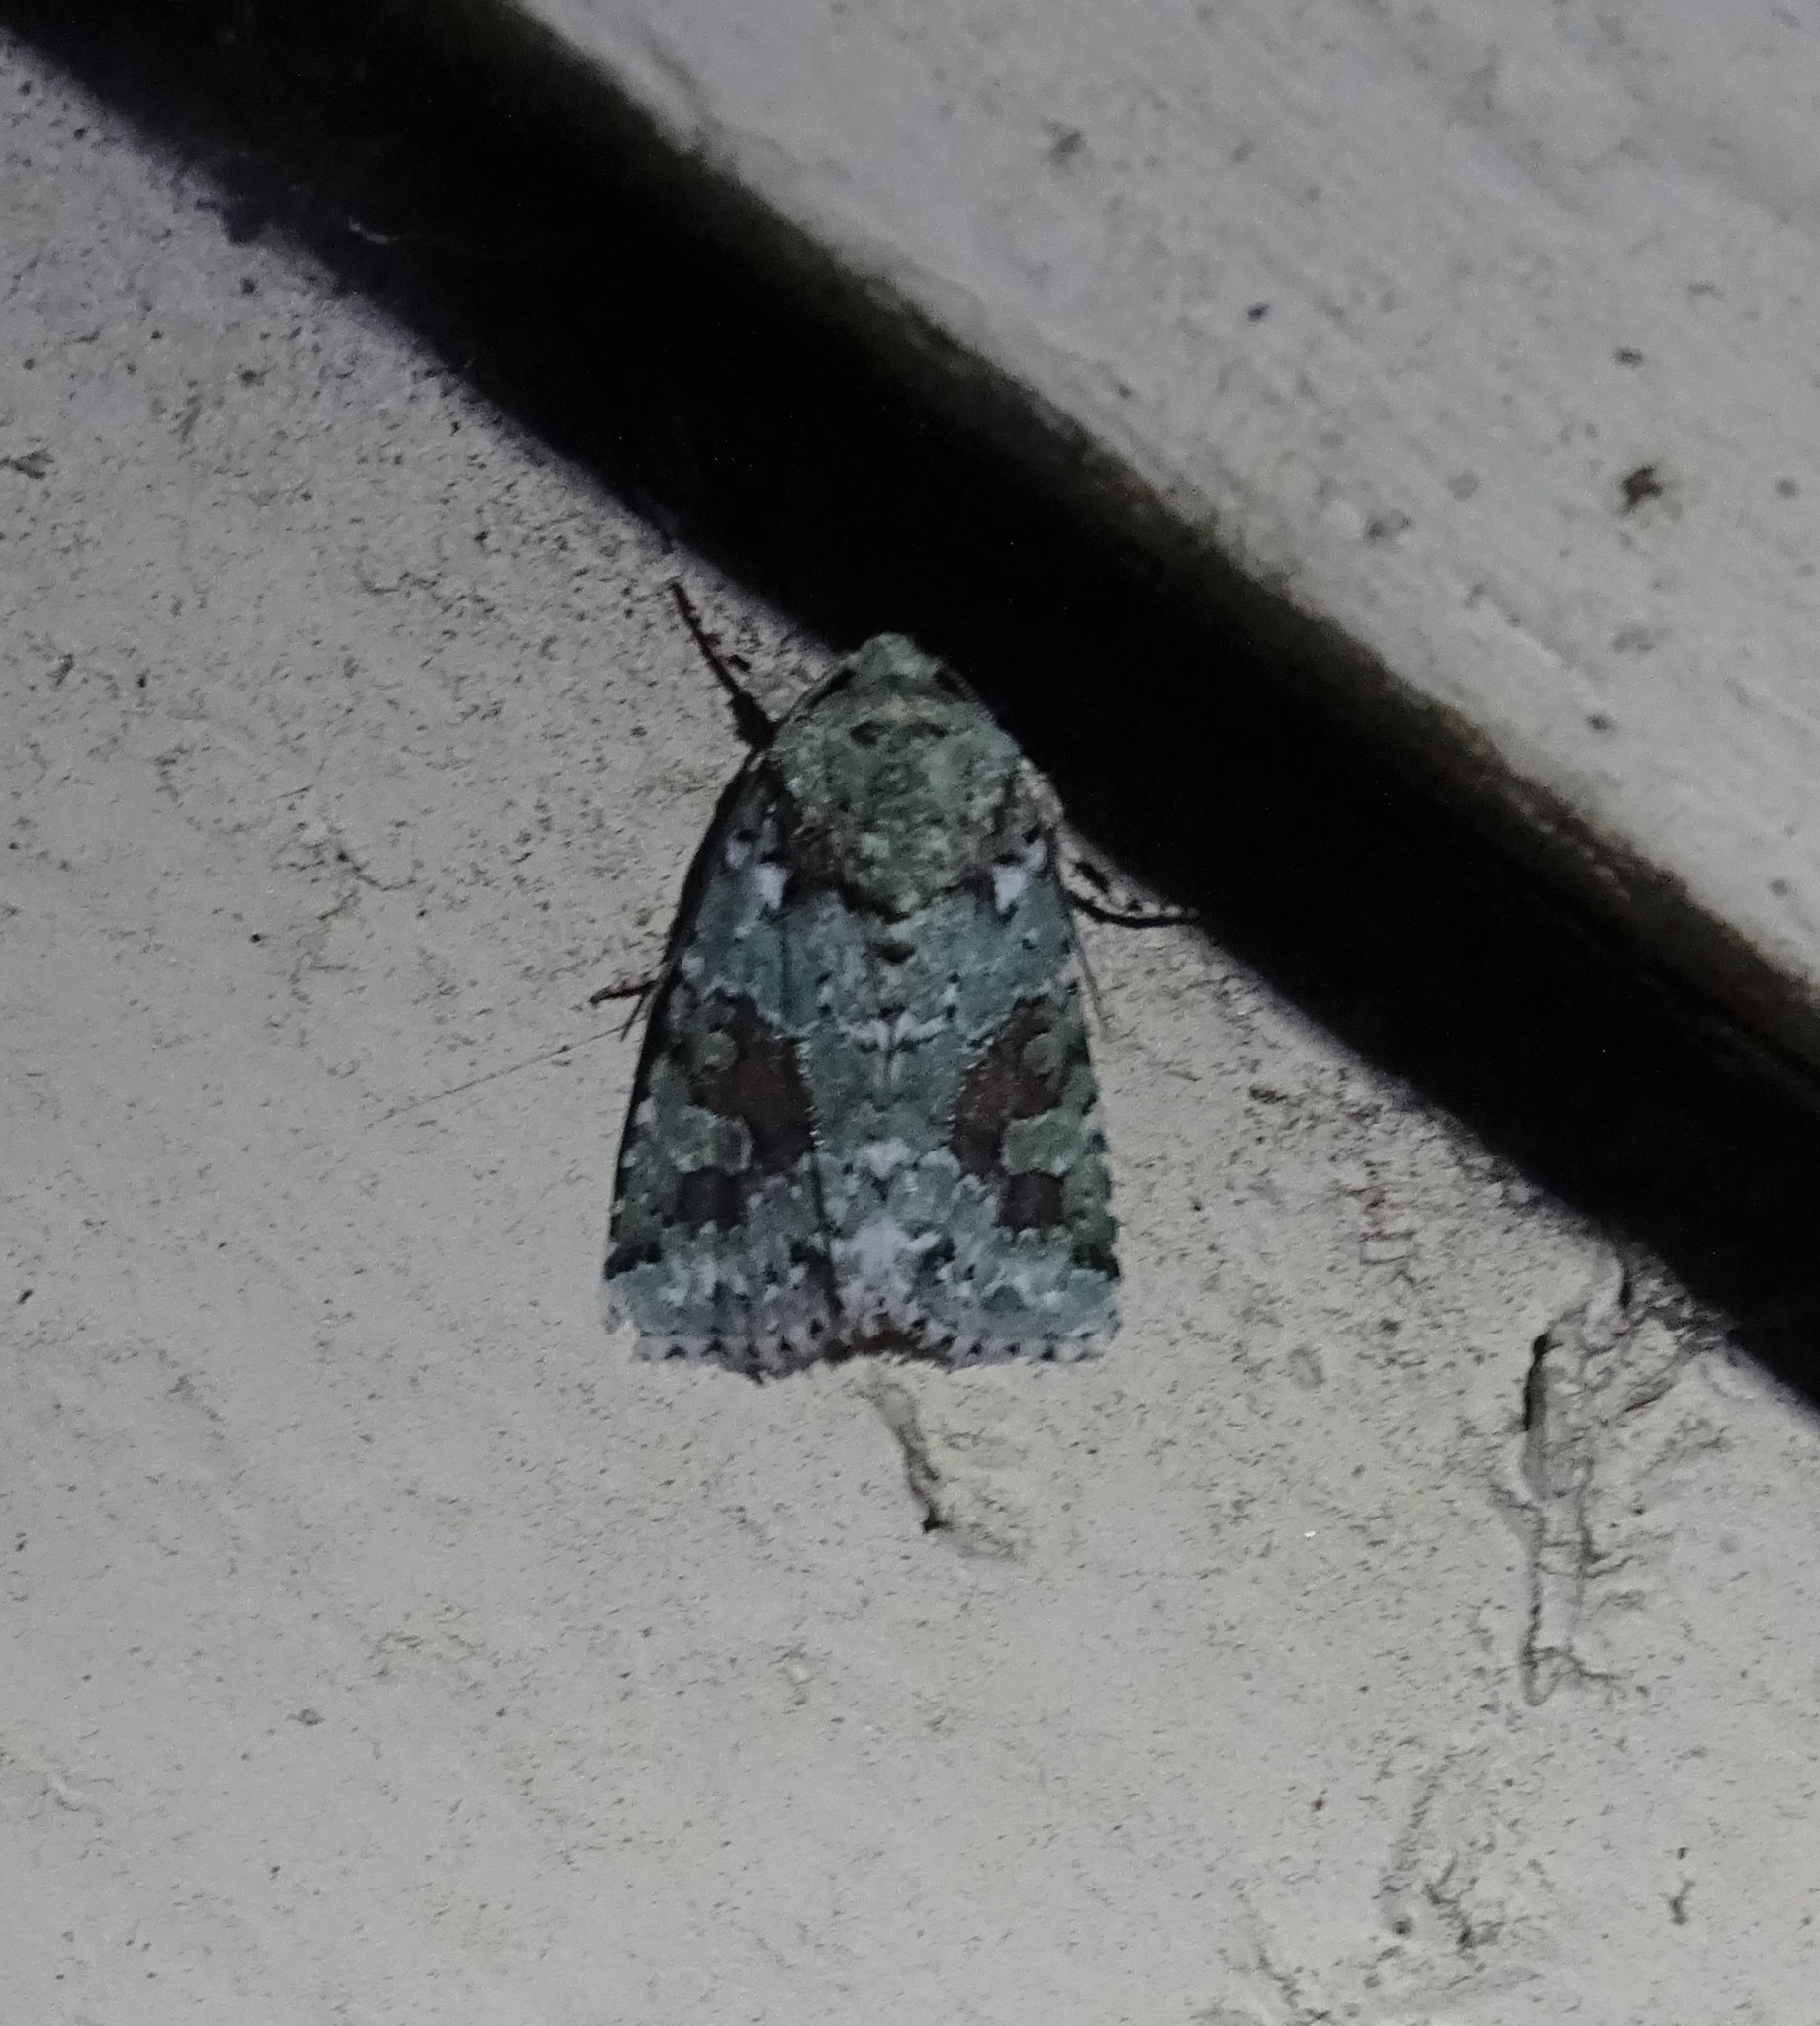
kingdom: Animalia
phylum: Arthropoda
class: Insecta
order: Lepidoptera
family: Noctuidae
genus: Lacinipolia
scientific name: Lacinipolia laudabilis
